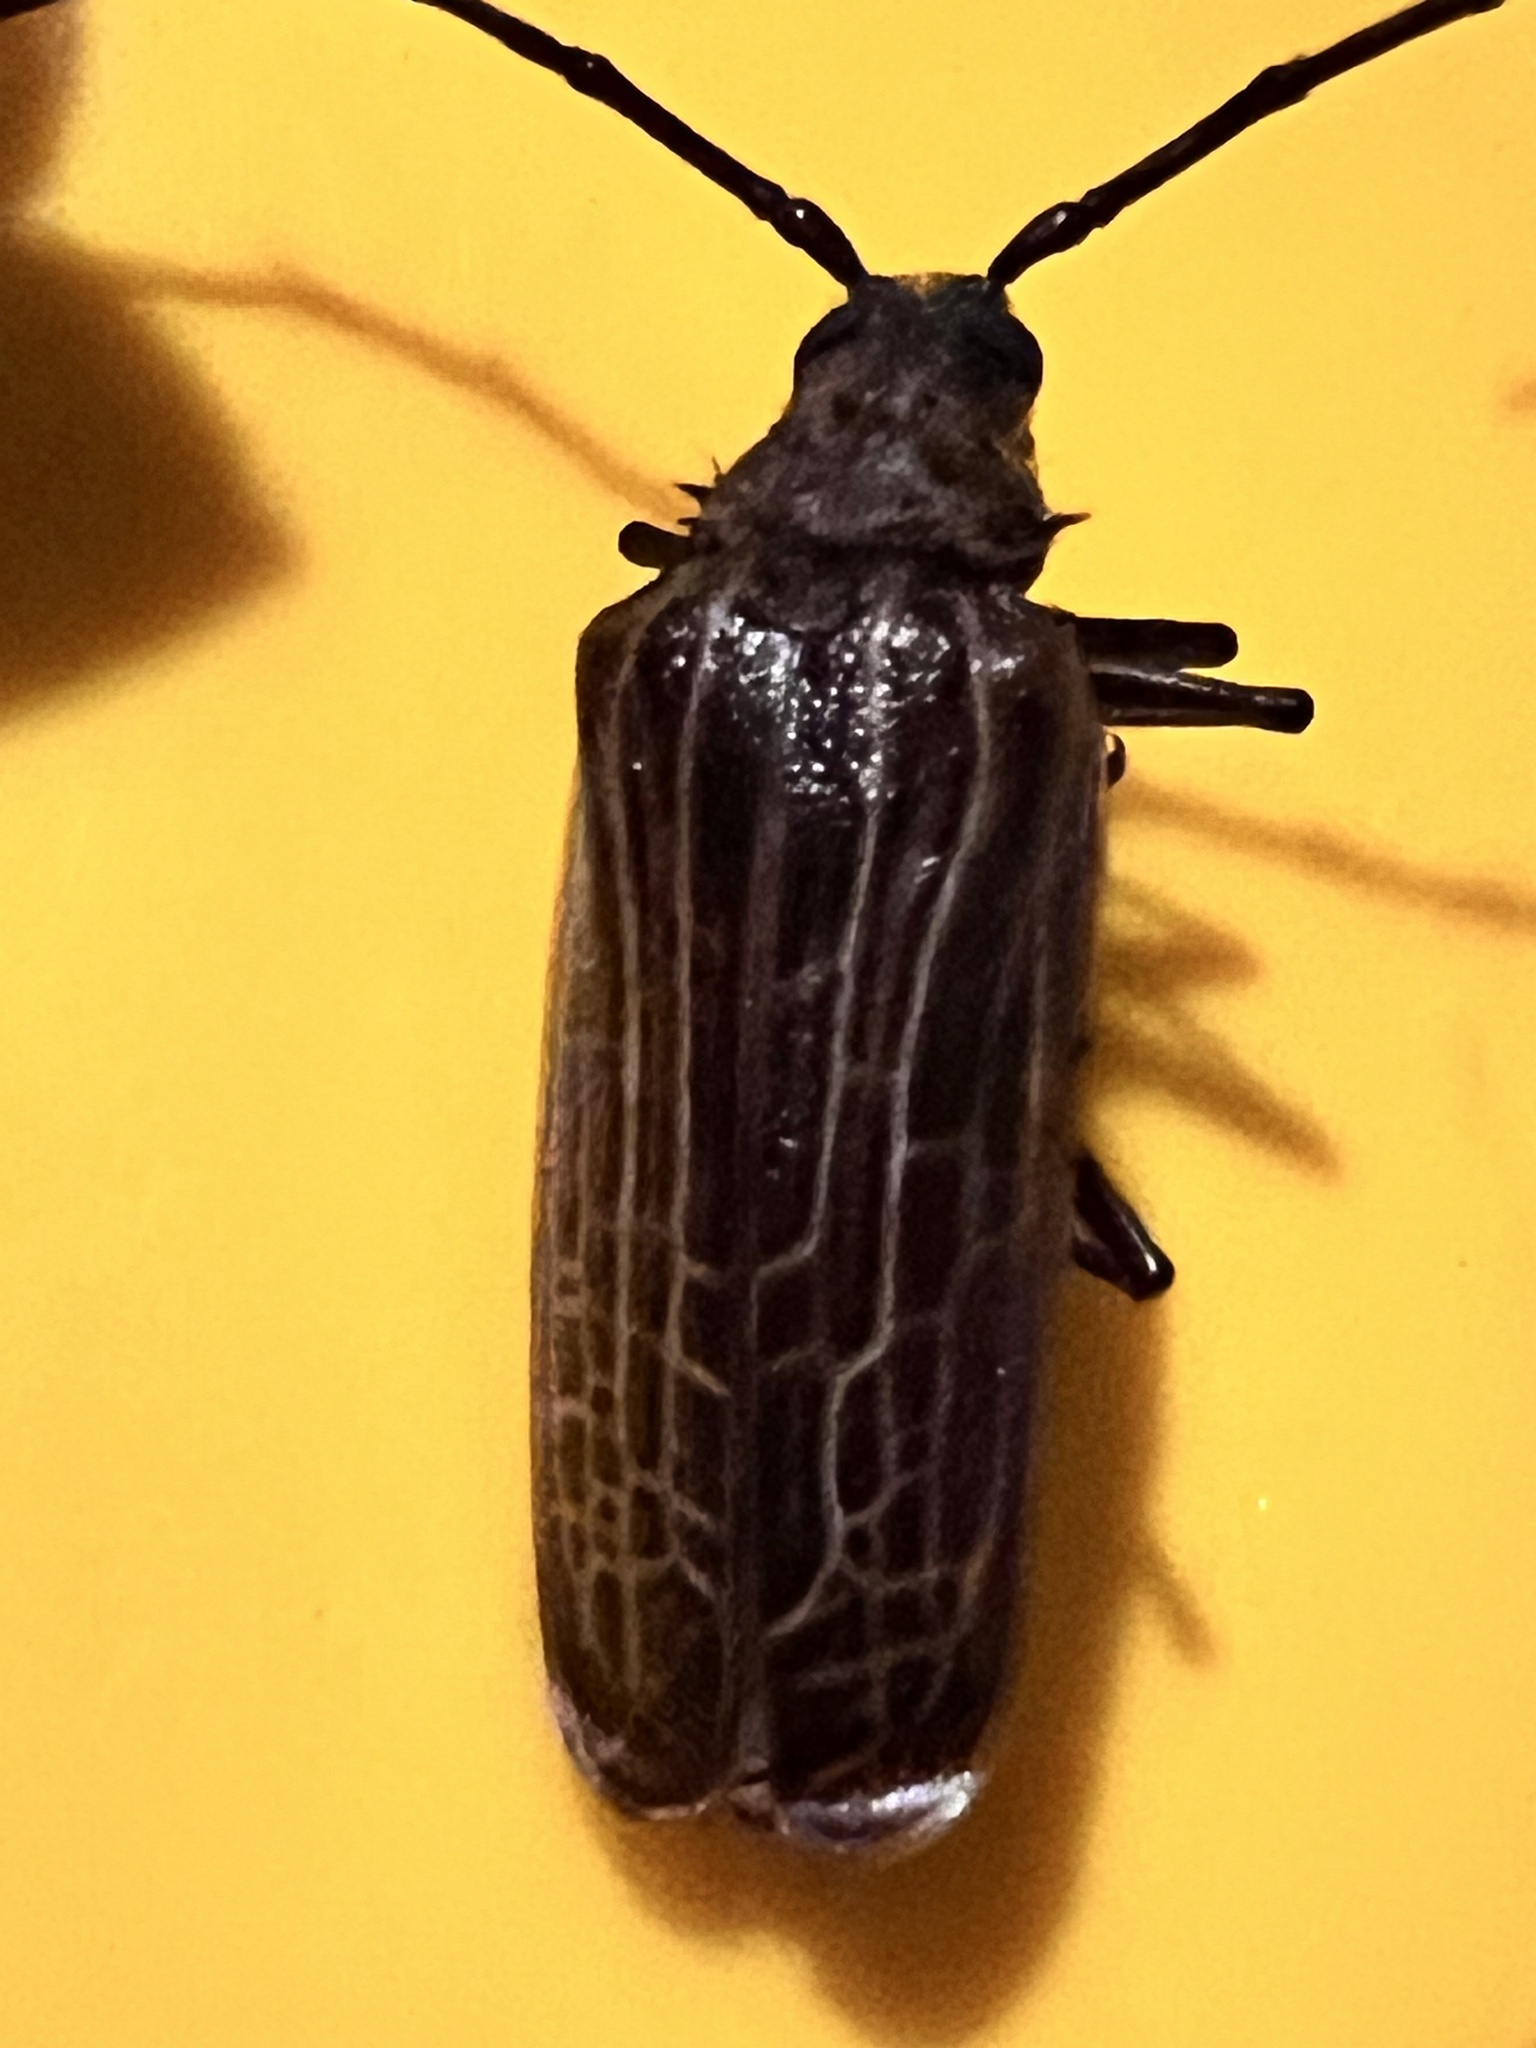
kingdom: Animalia
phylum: Arthropoda
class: Insecta
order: Coleoptera
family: Cerambycidae
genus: Prionoplus
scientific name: Prionoplus reticularis
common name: Huhu beetle
